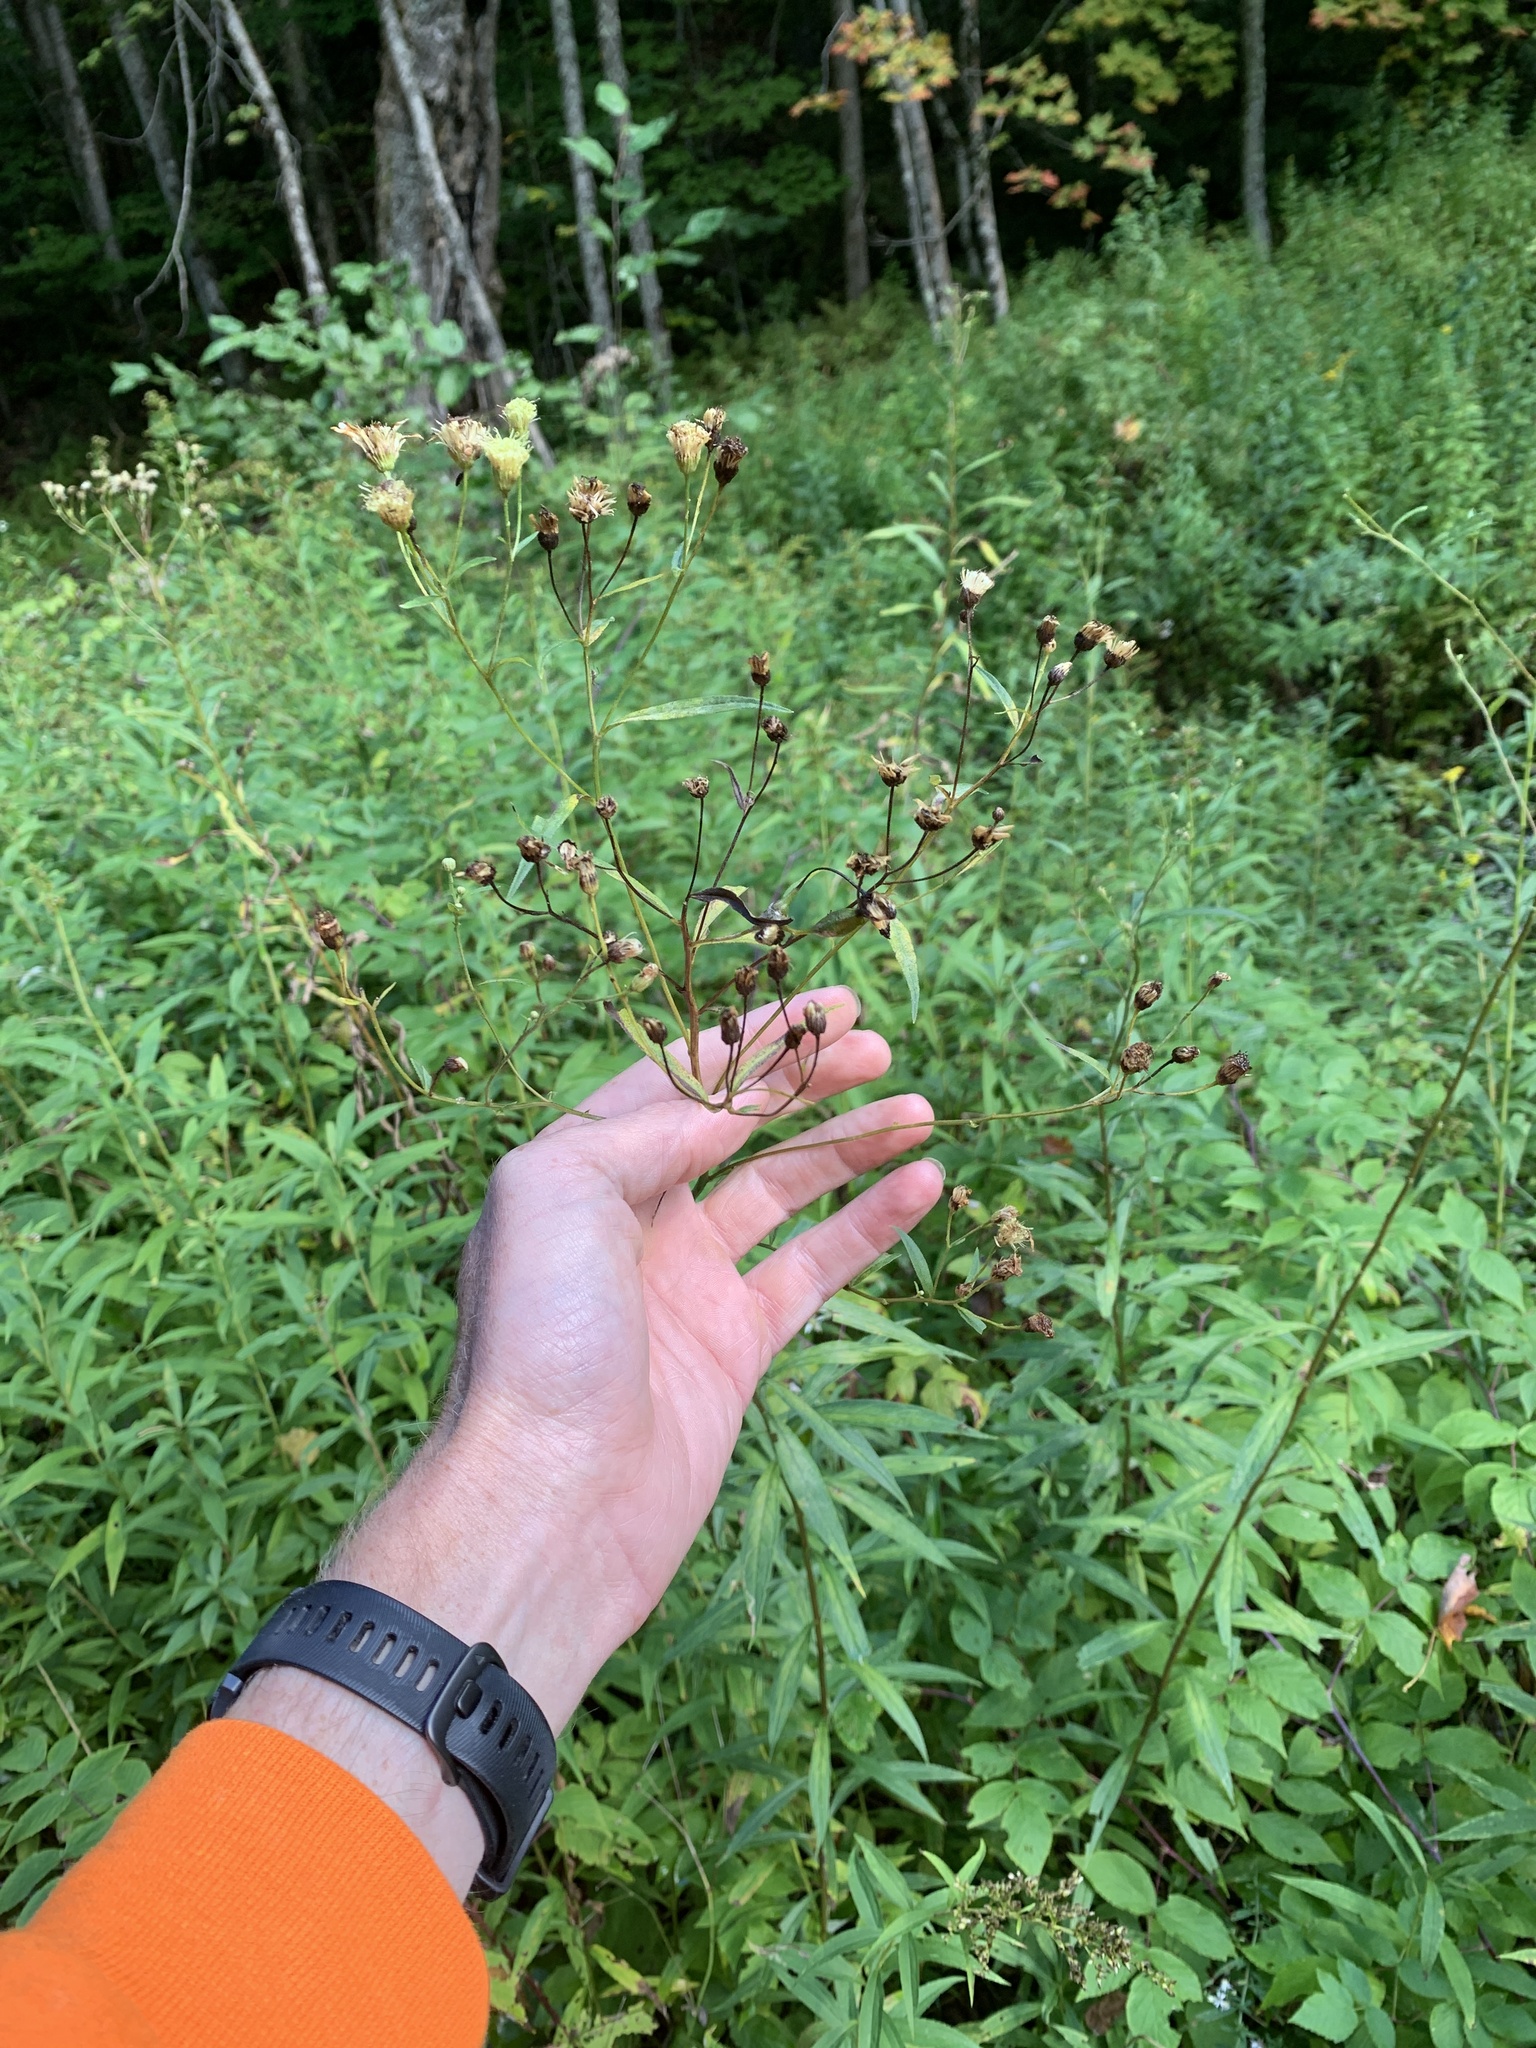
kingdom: Plantae
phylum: Tracheophyta
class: Magnoliopsida
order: Asterales
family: Asteraceae
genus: Doellingeria
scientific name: Doellingeria umbellata
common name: Flat-top white aster
